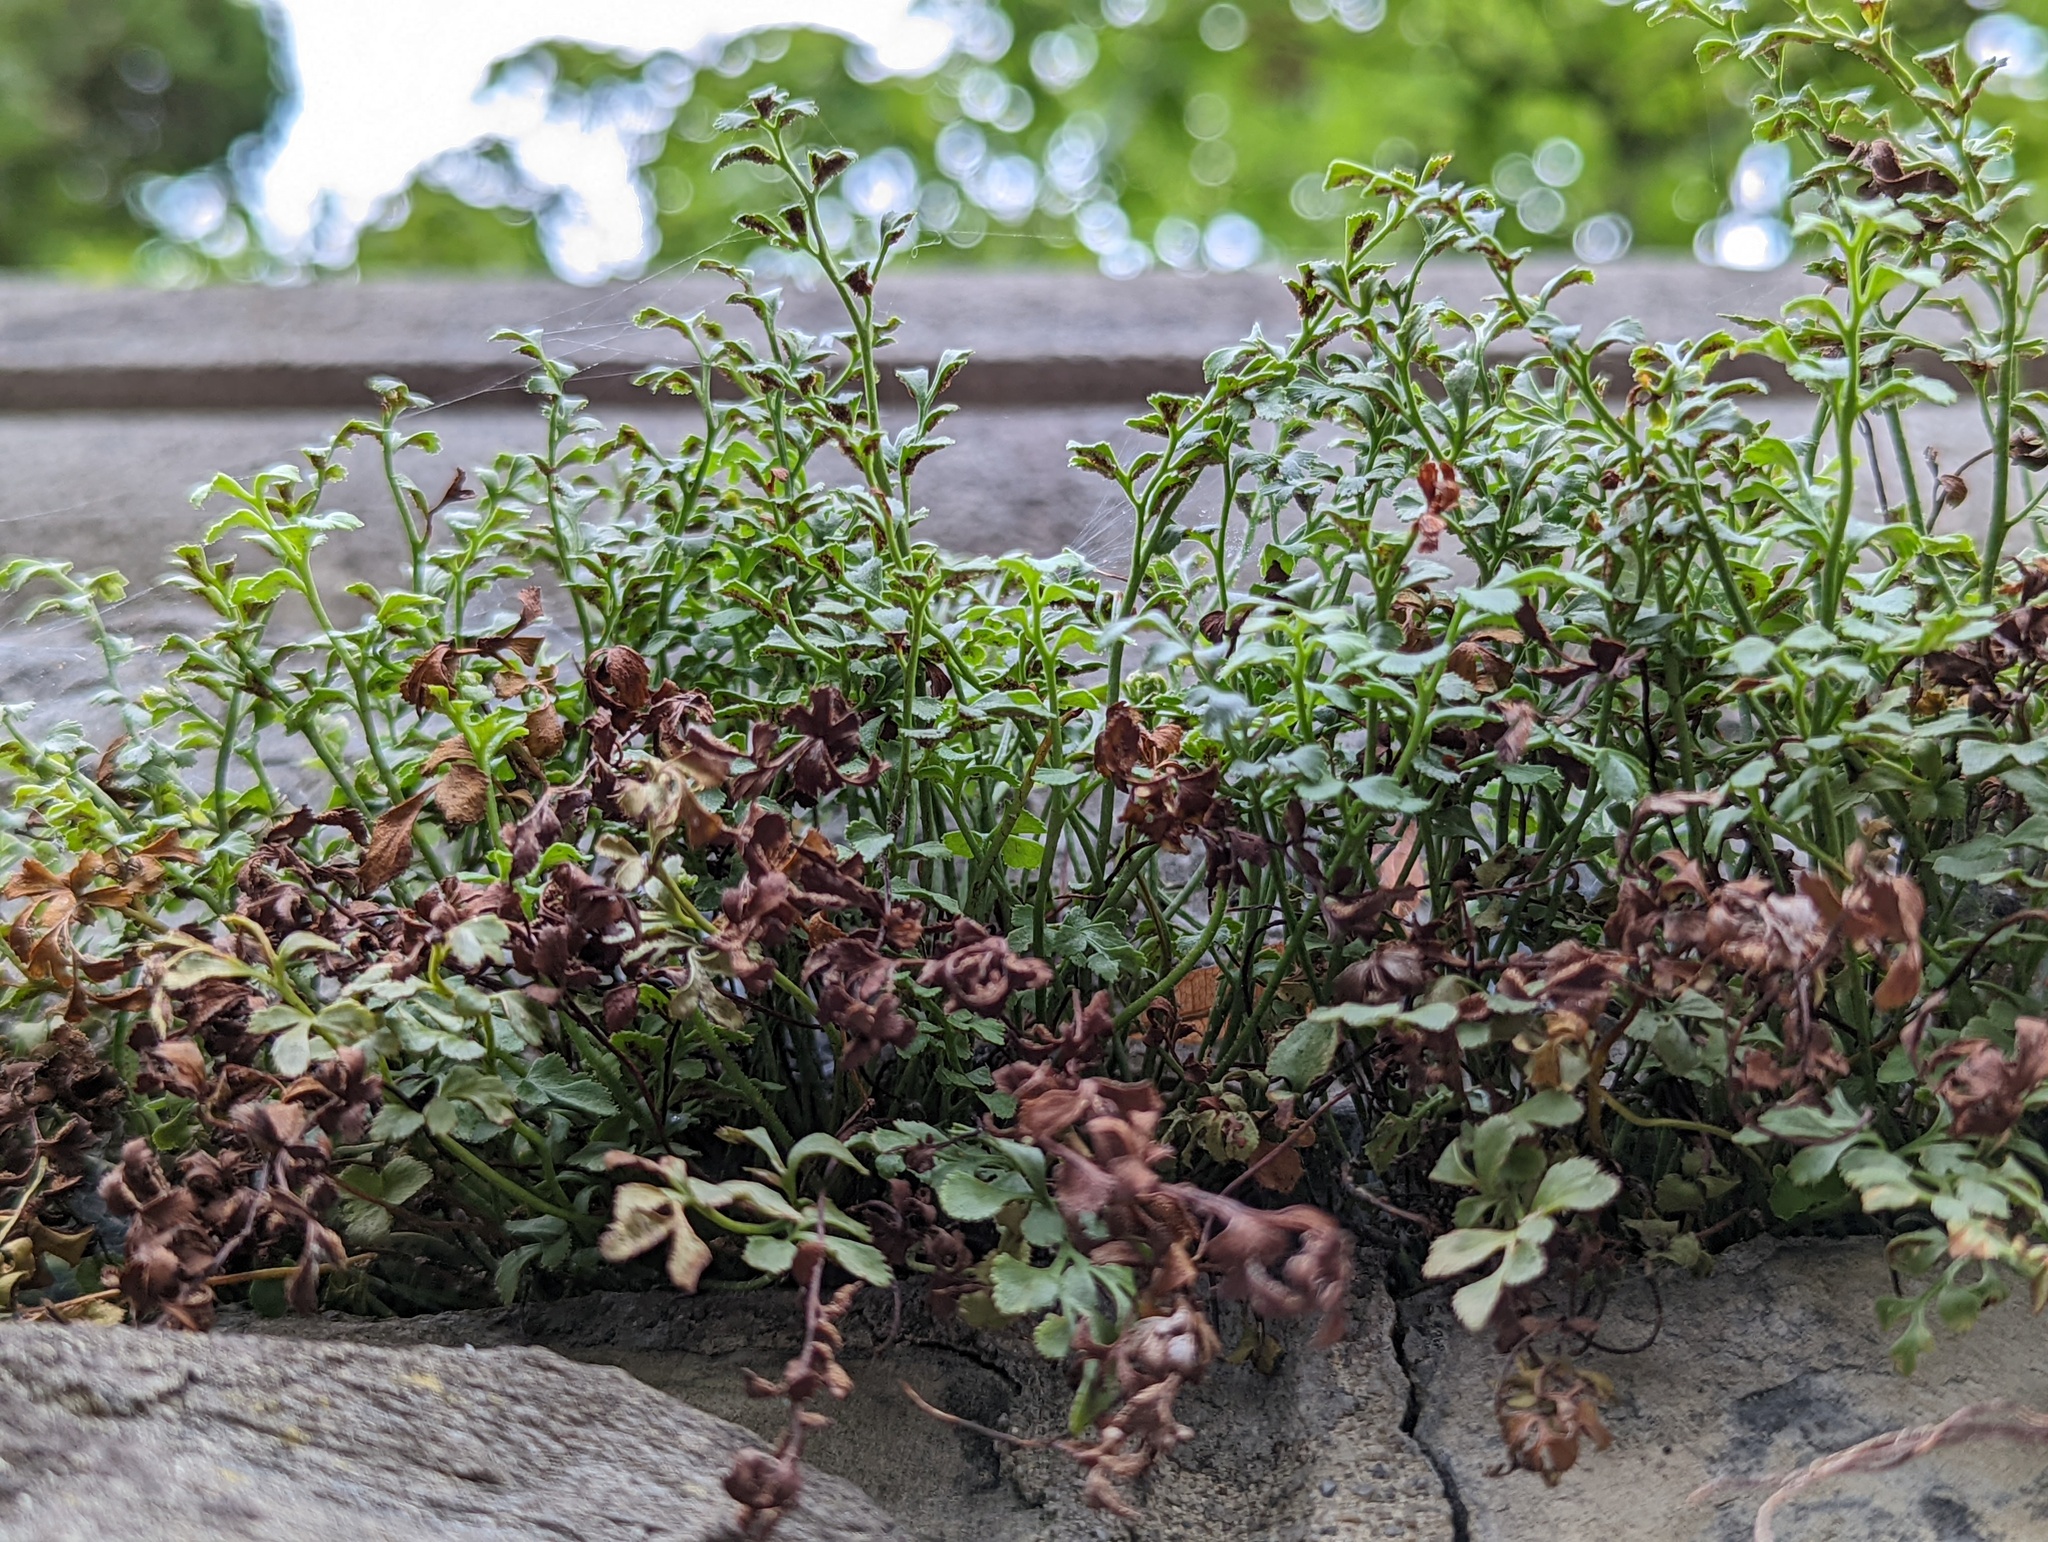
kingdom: Plantae
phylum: Tracheophyta
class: Polypodiopsida
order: Polypodiales
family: Aspleniaceae
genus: Asplenium
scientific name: Asplenium ruta-muraria
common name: Wall-rue
